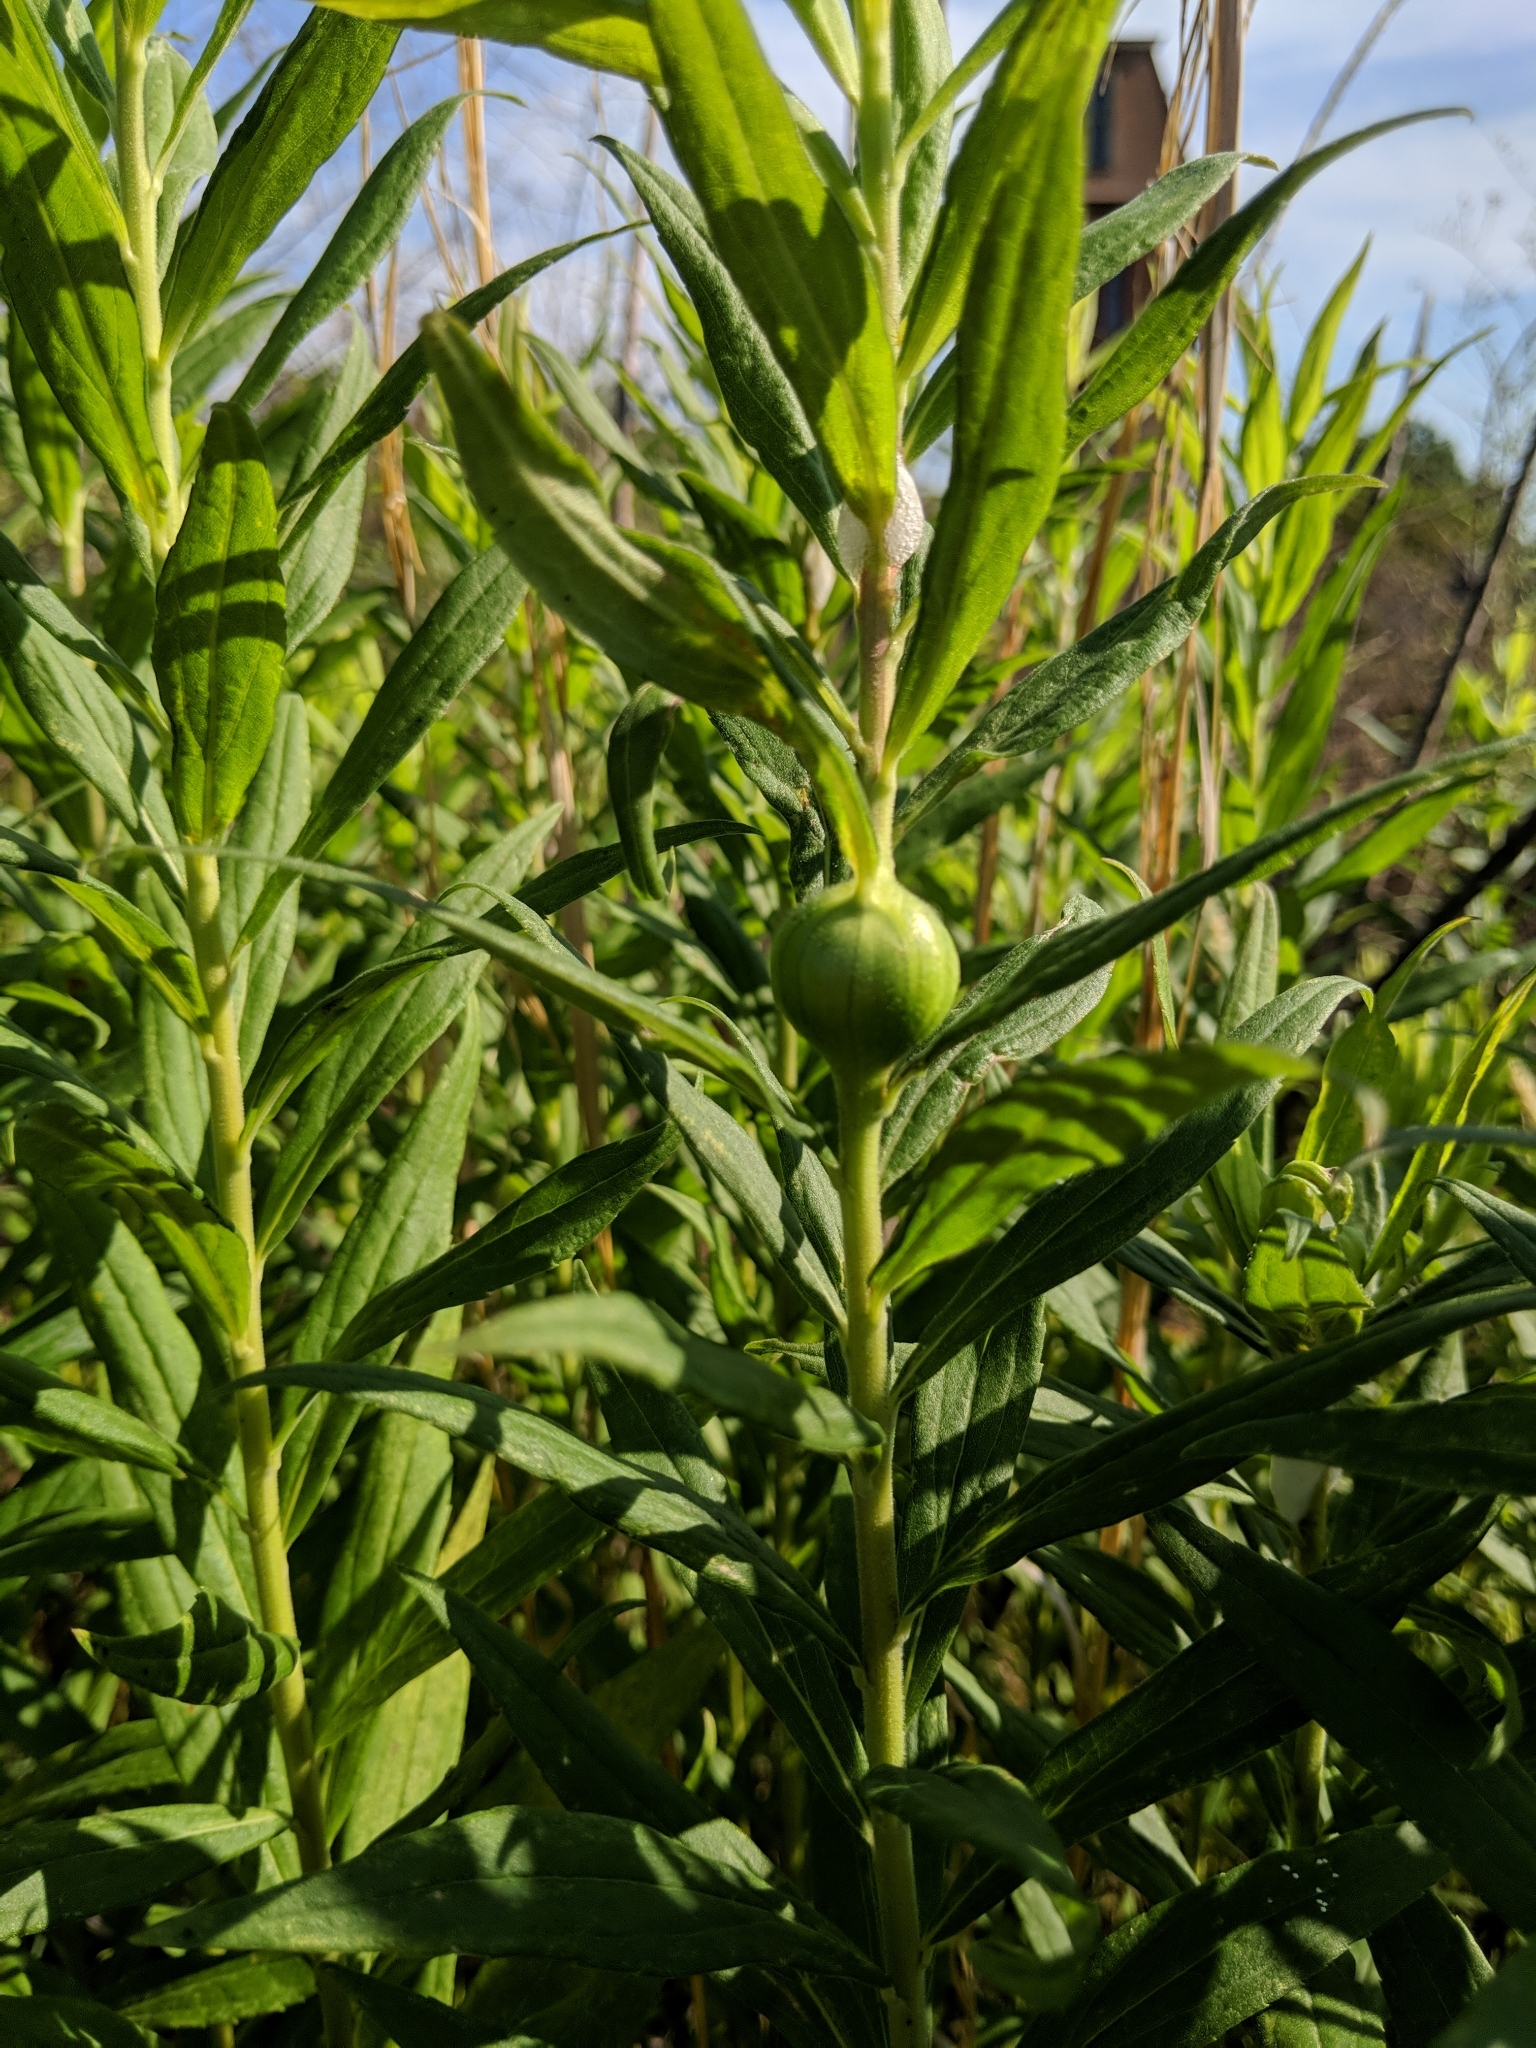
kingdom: Animalia
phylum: Arthropoda
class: Insecta
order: Diptera
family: Tephritidae
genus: Eurosta
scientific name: Eurosta solidaginis
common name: Goldenrod gall fly
